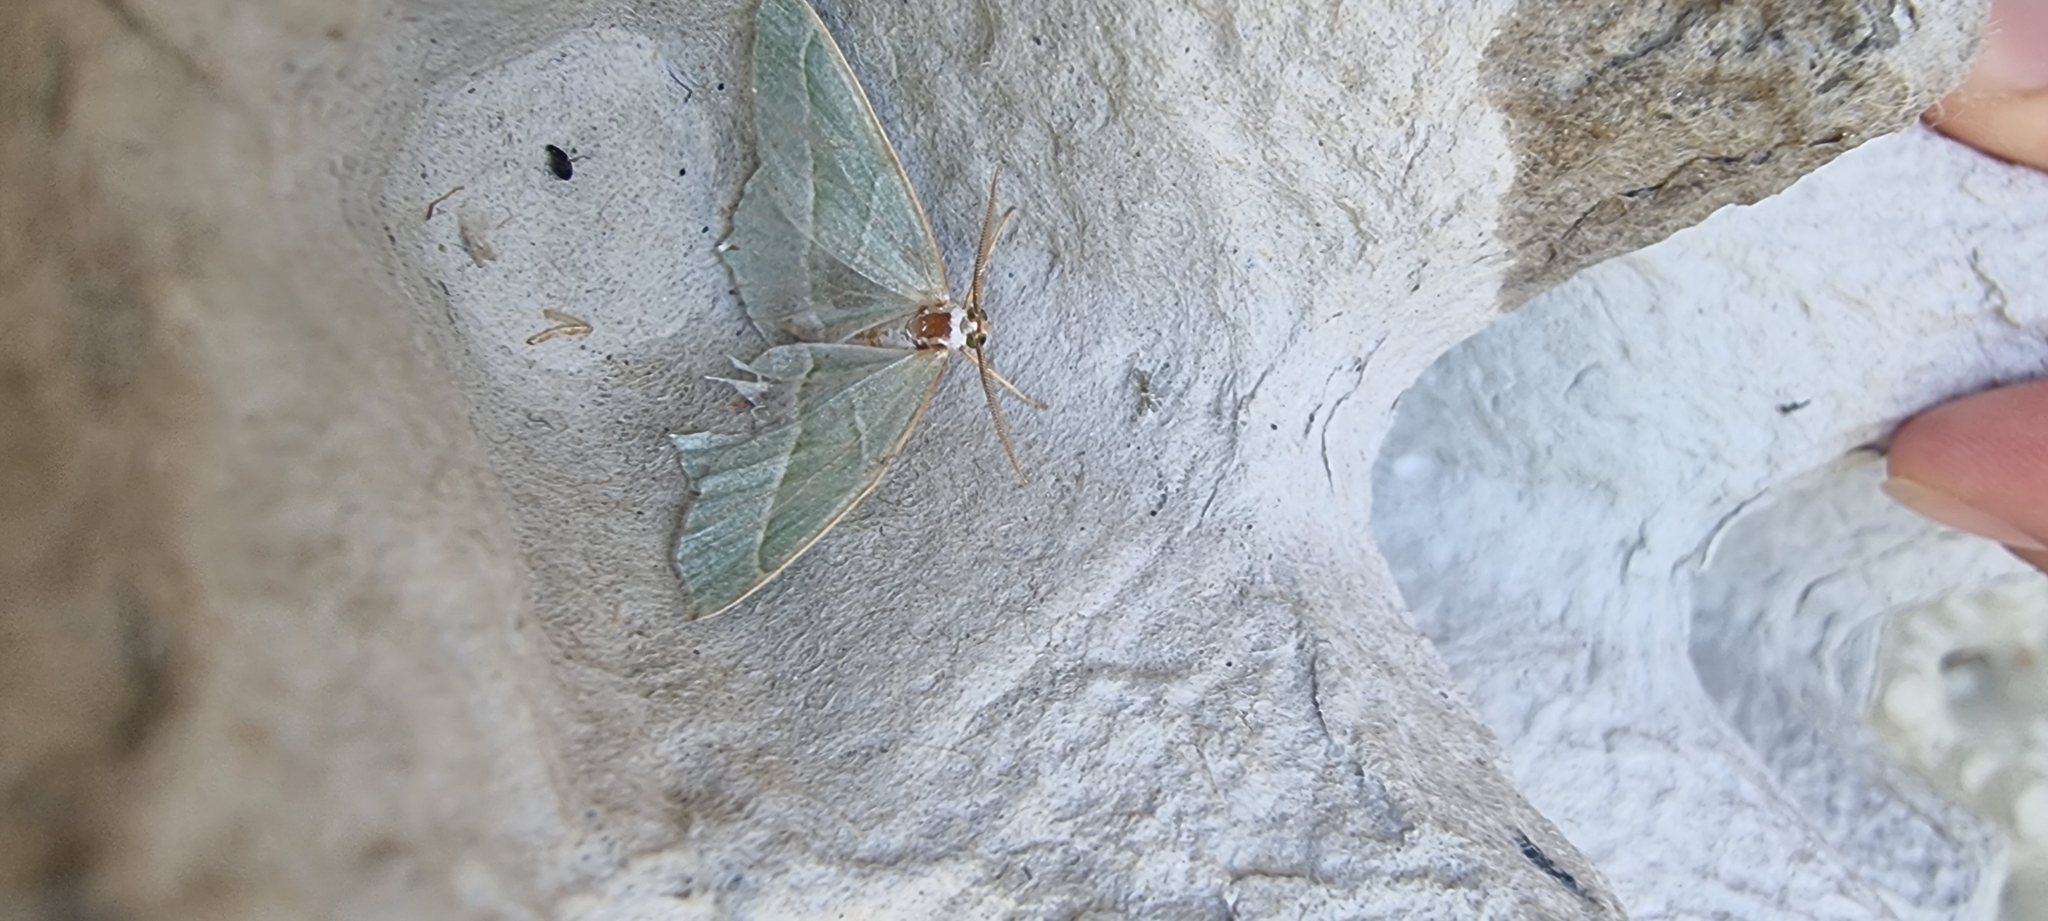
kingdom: Animalia
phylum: Arthropoda
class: Insecta
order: Lepidoptera
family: Geometridae
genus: Campaea
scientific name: Campaea margaritaria
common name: Light emerald
